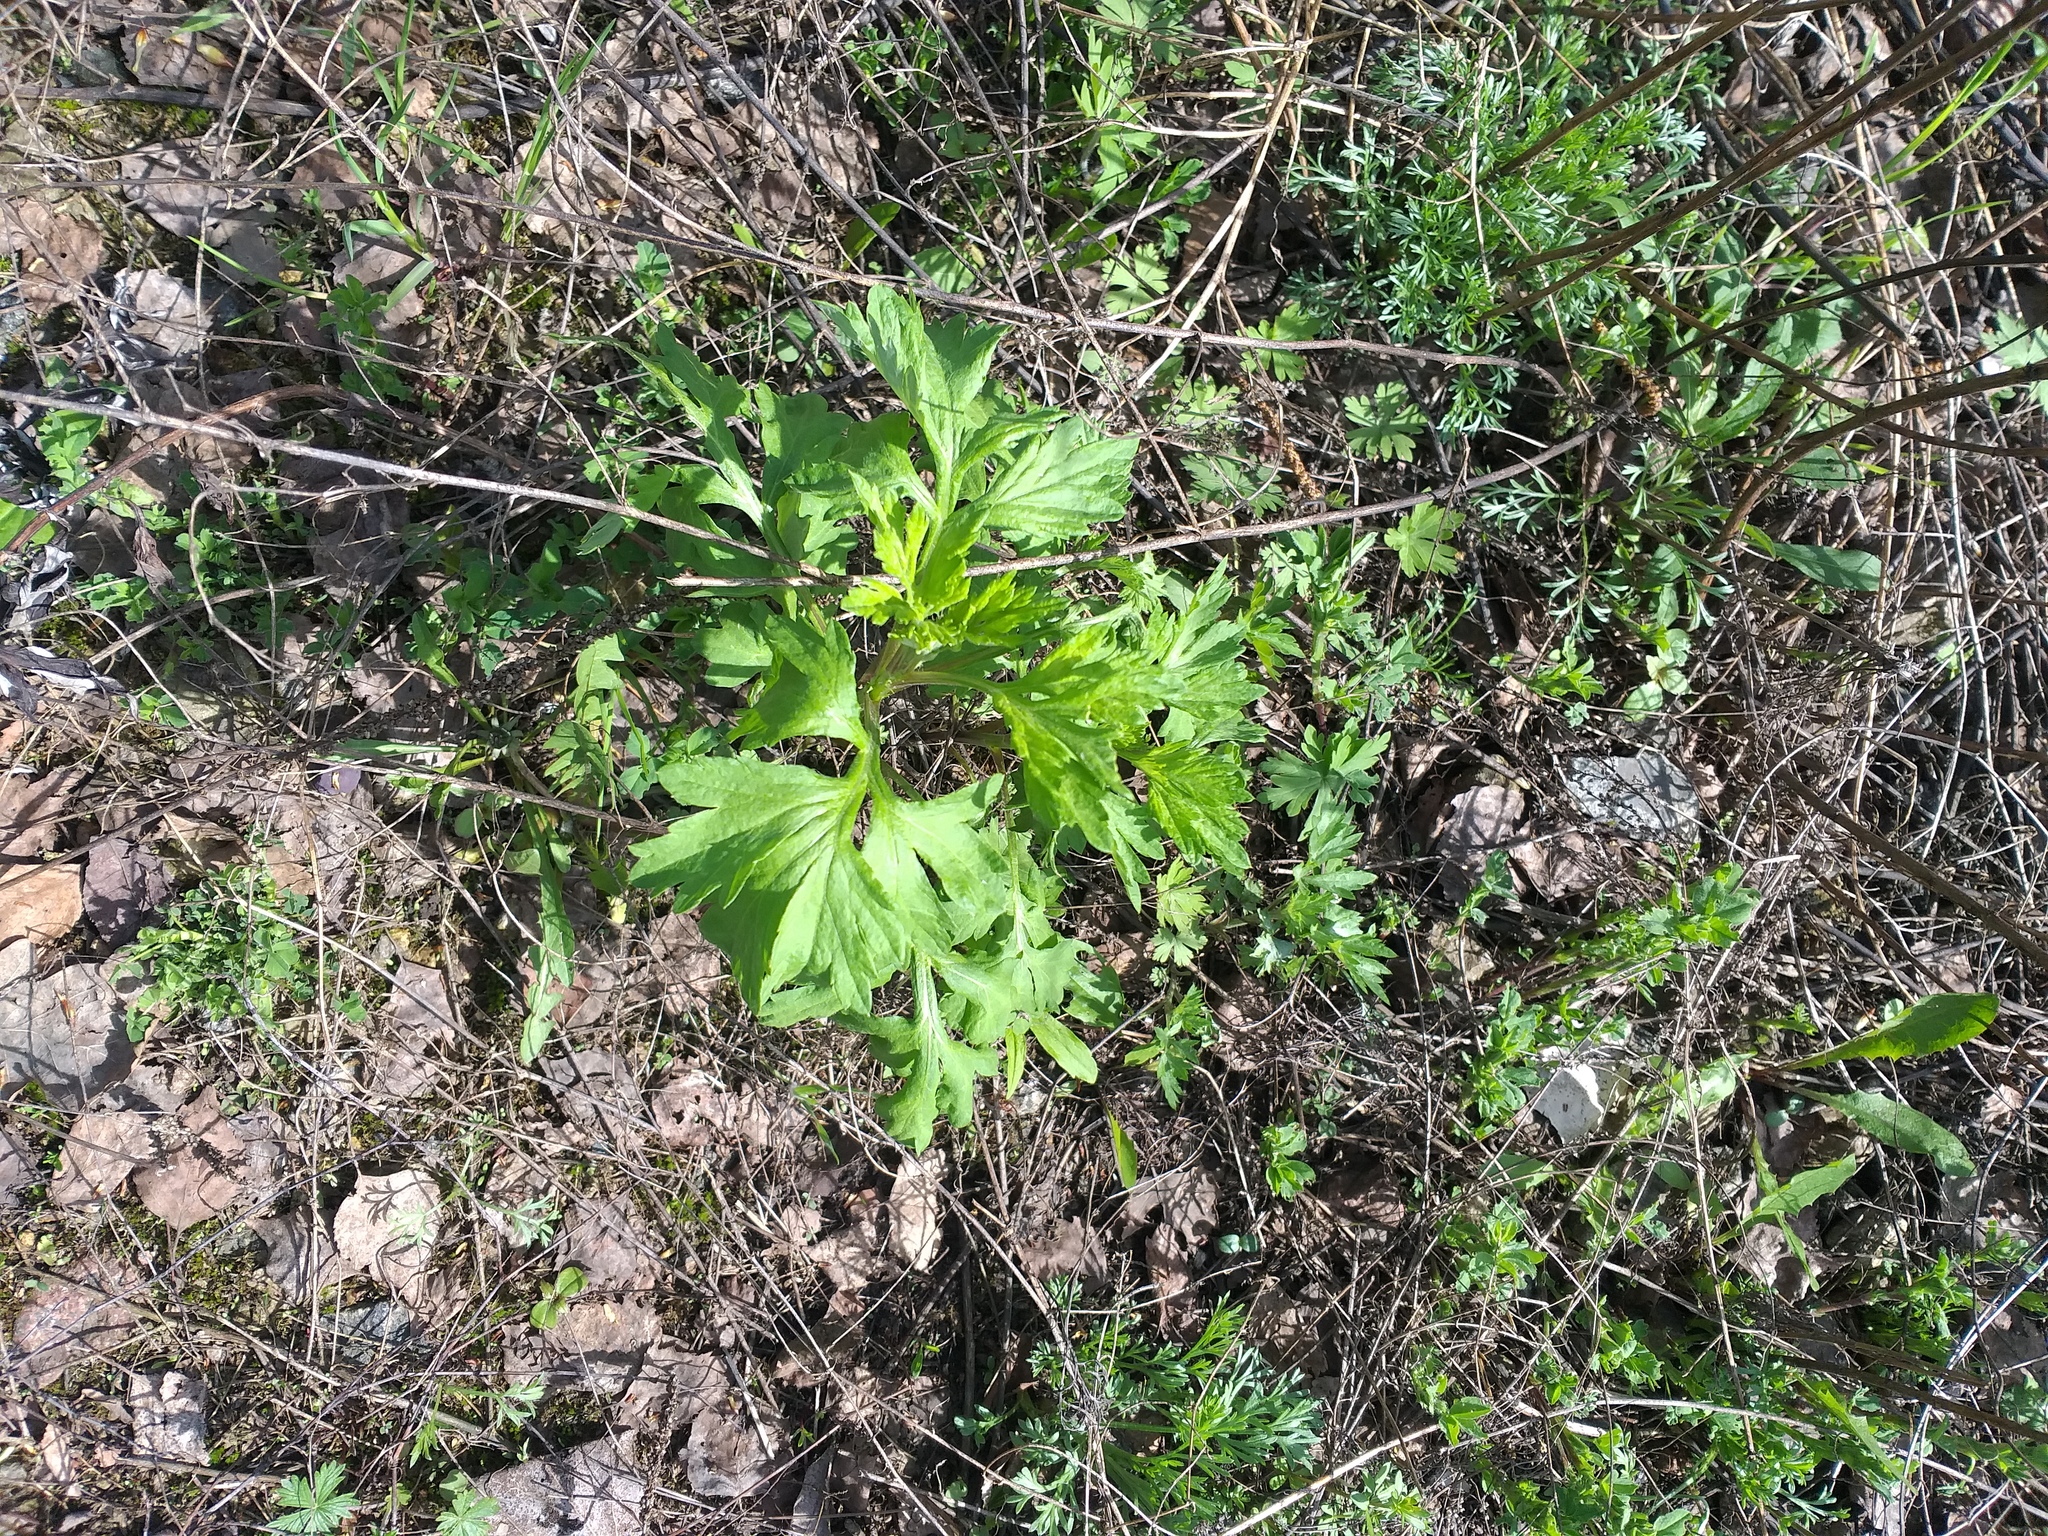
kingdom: Plantae
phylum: Tracheophyta
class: Magnoliopsida
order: Asterales
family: Asteraceae
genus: Artemisia
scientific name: Artemisia vulgaris
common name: Mugwort
